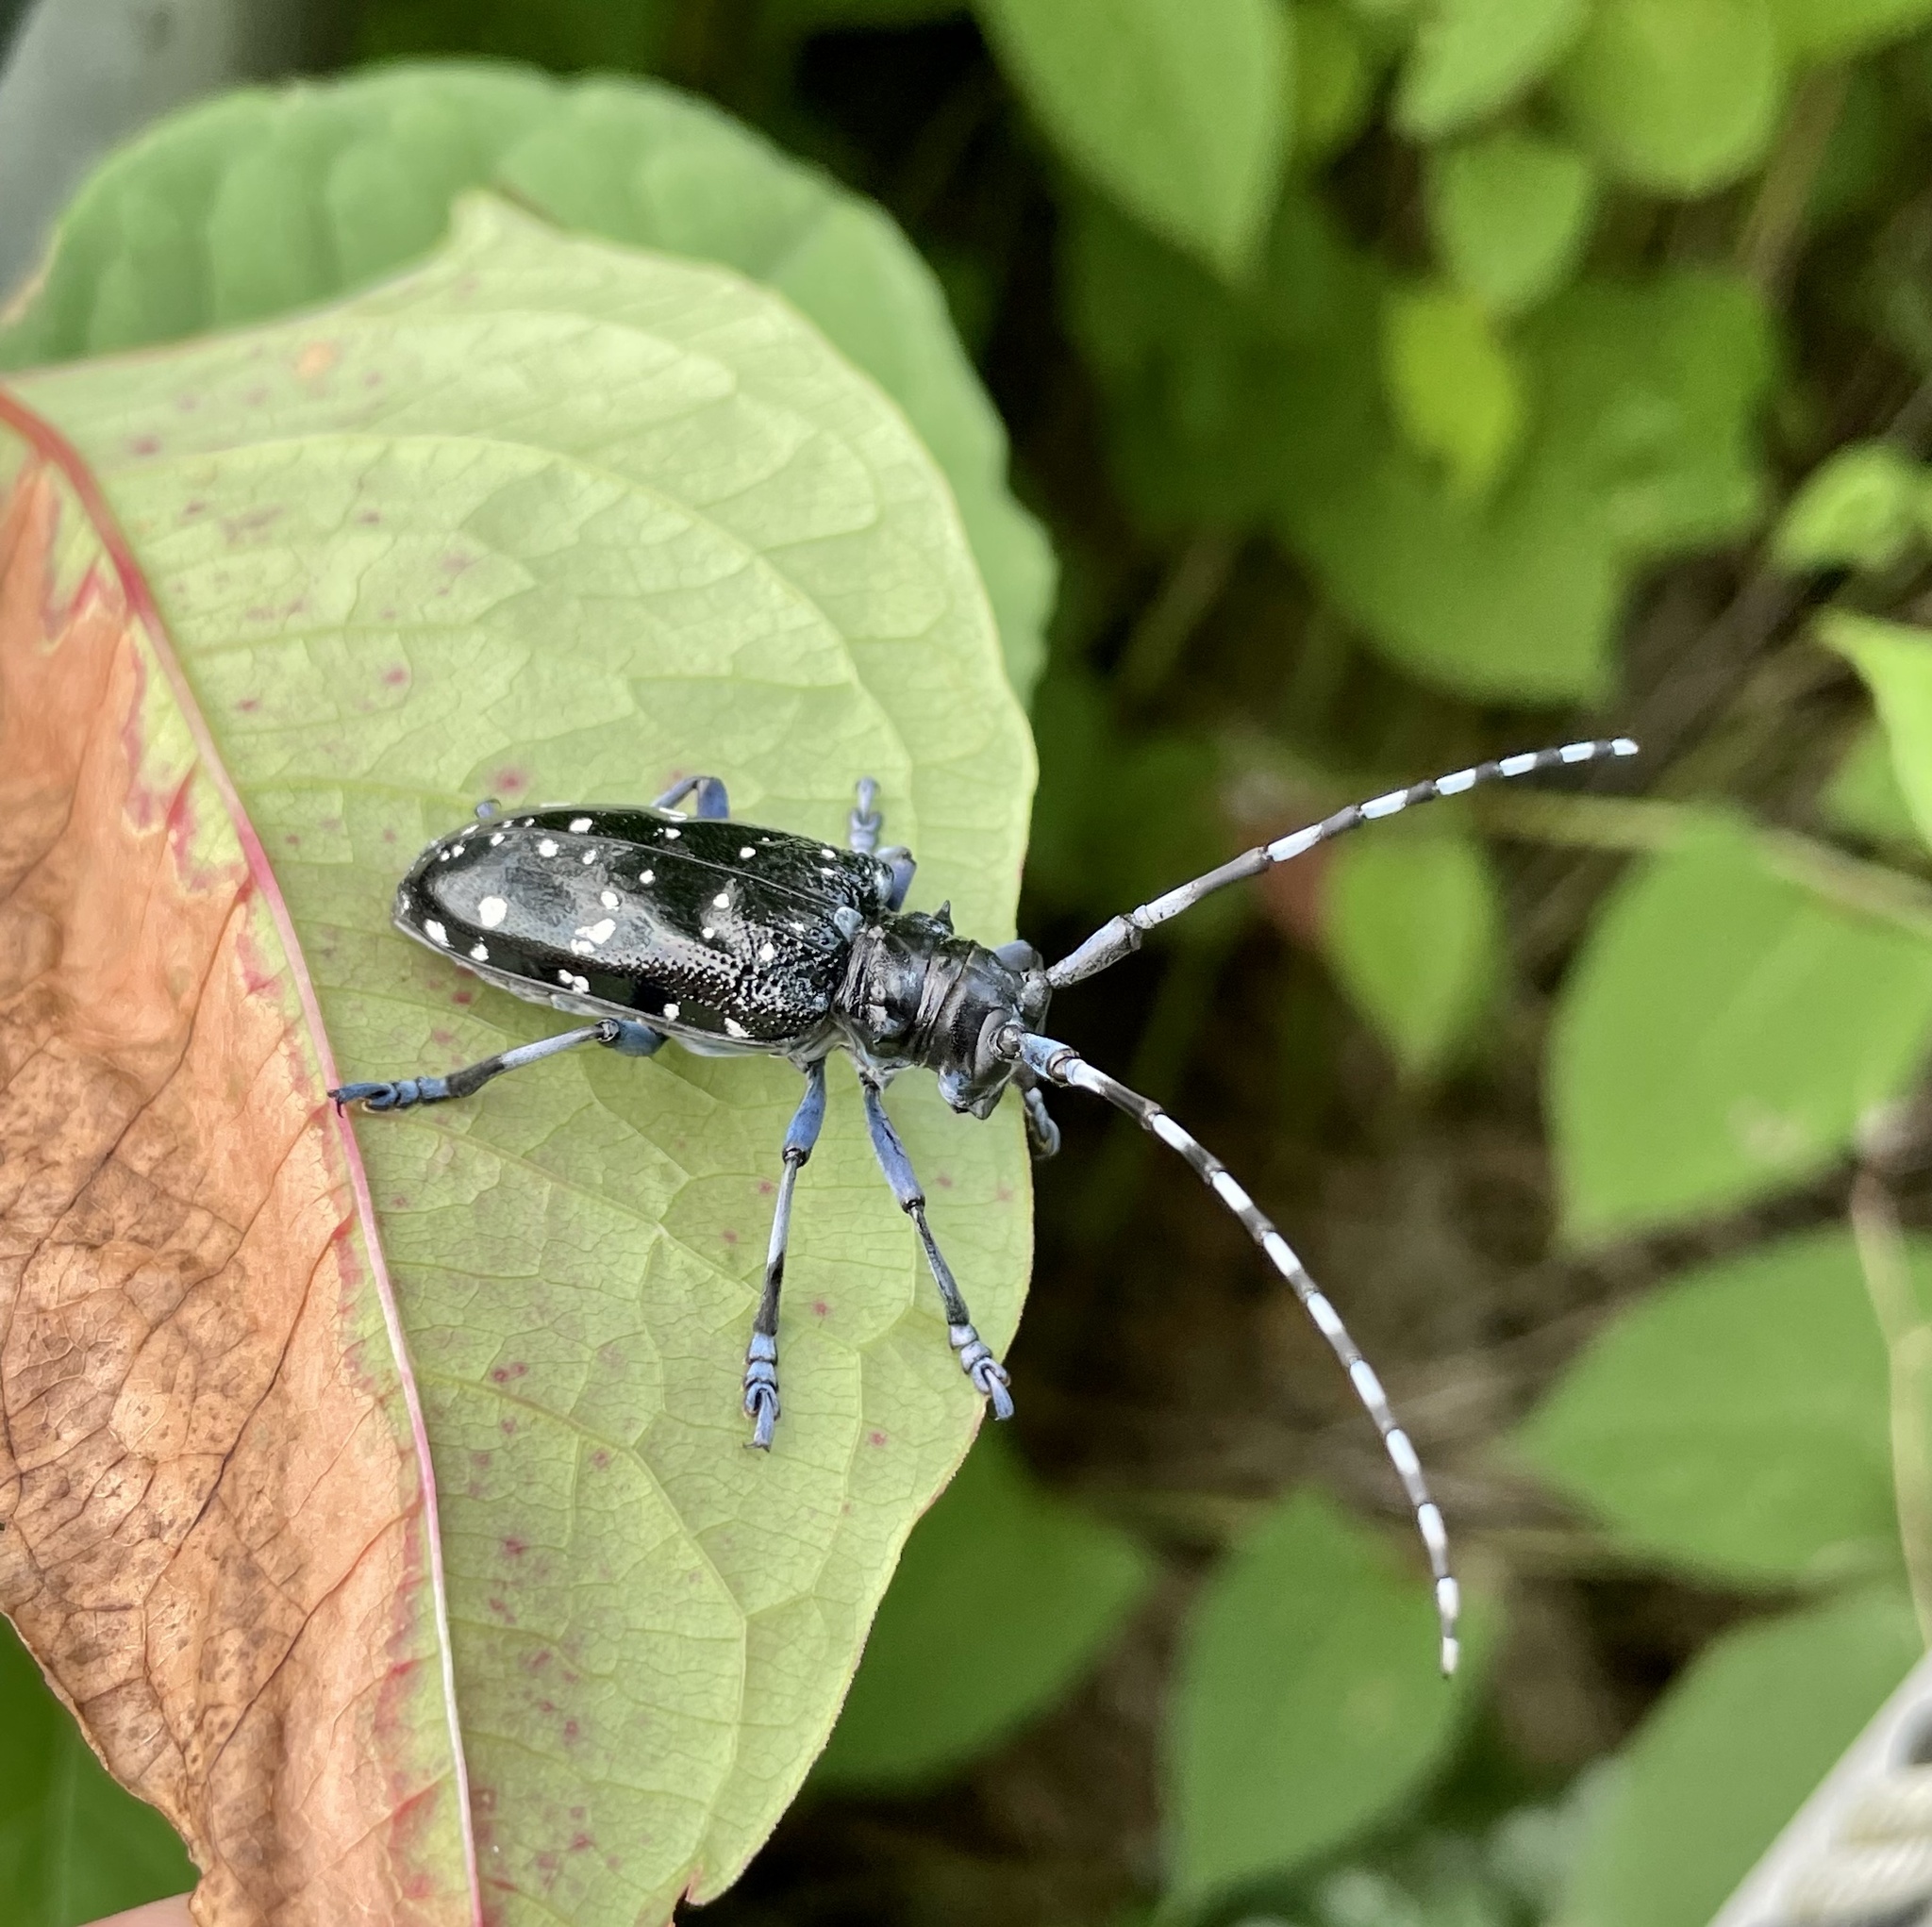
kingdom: Animalia
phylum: Arthropoda
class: Insecta
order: Coleoptera
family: Cerambycidae
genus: Anoplophora
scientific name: Anoplophora chinensis
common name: Citrus longhorned beetle
